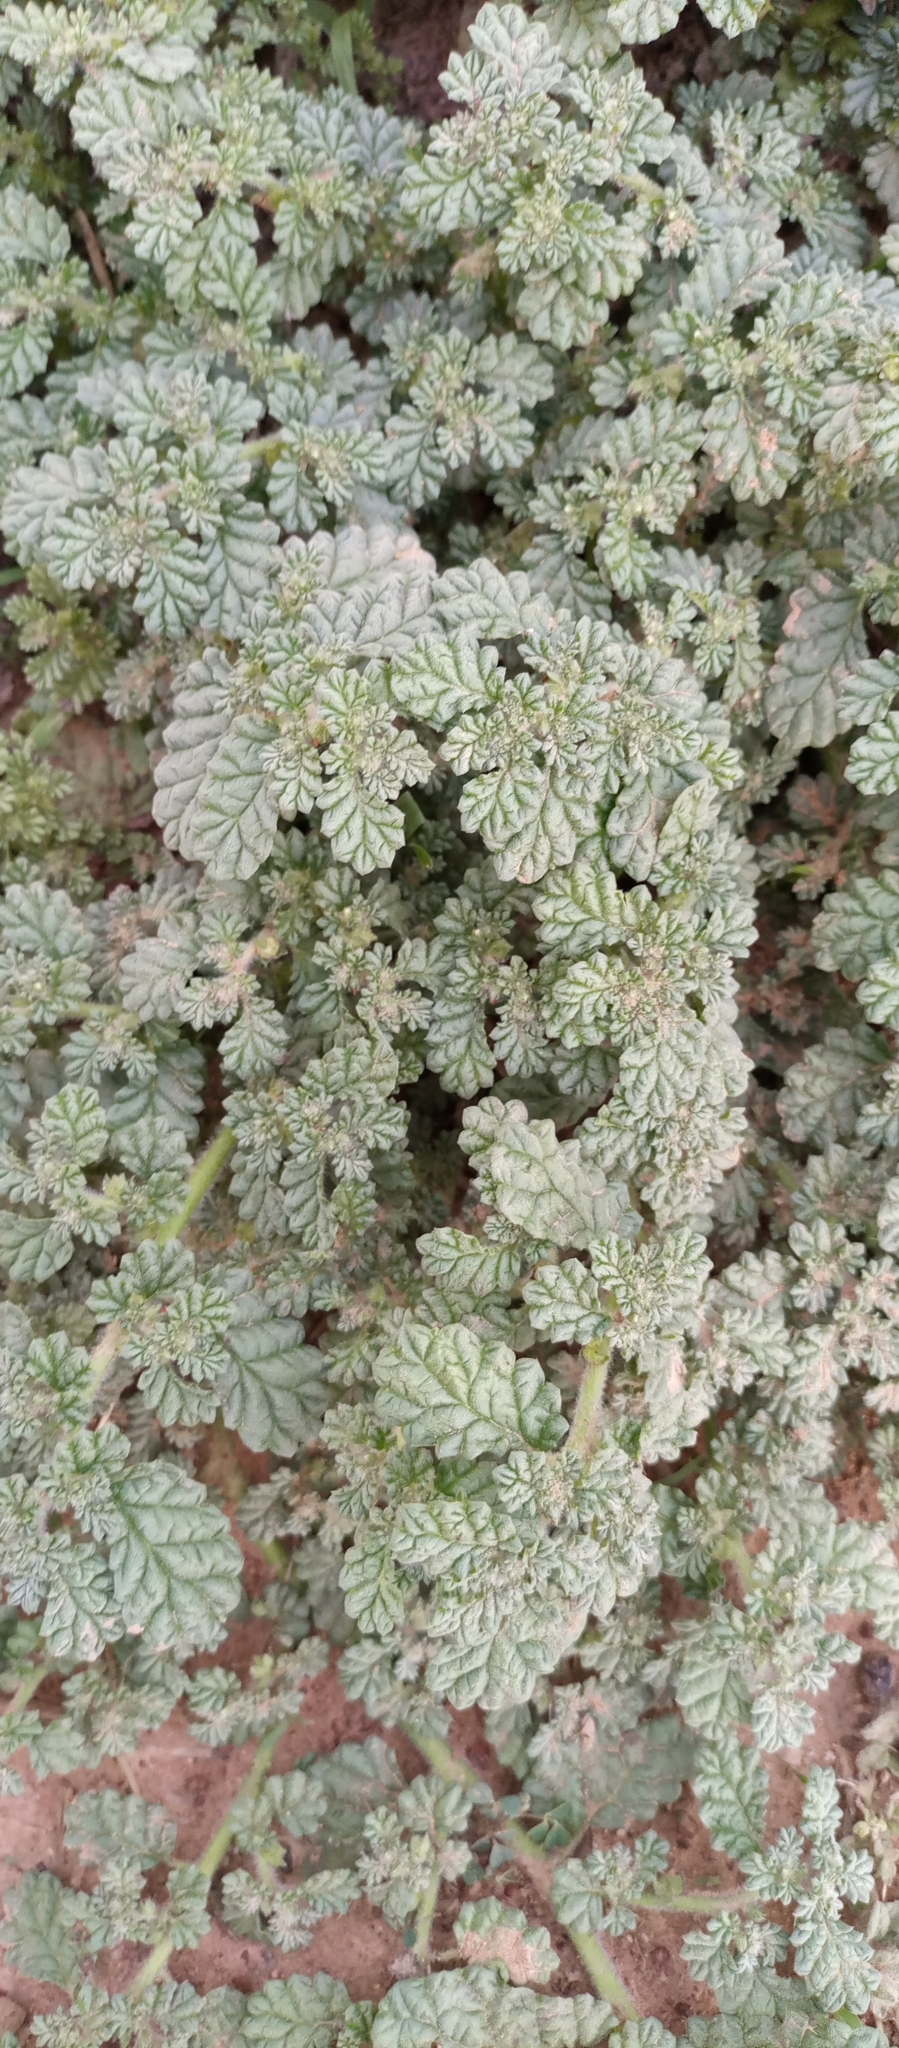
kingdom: Plantae
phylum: Tracheophyta
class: Magnoliopsida
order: Boraginales
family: Coldeniaceae
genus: Coldenia
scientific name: Coldenia procumbens
